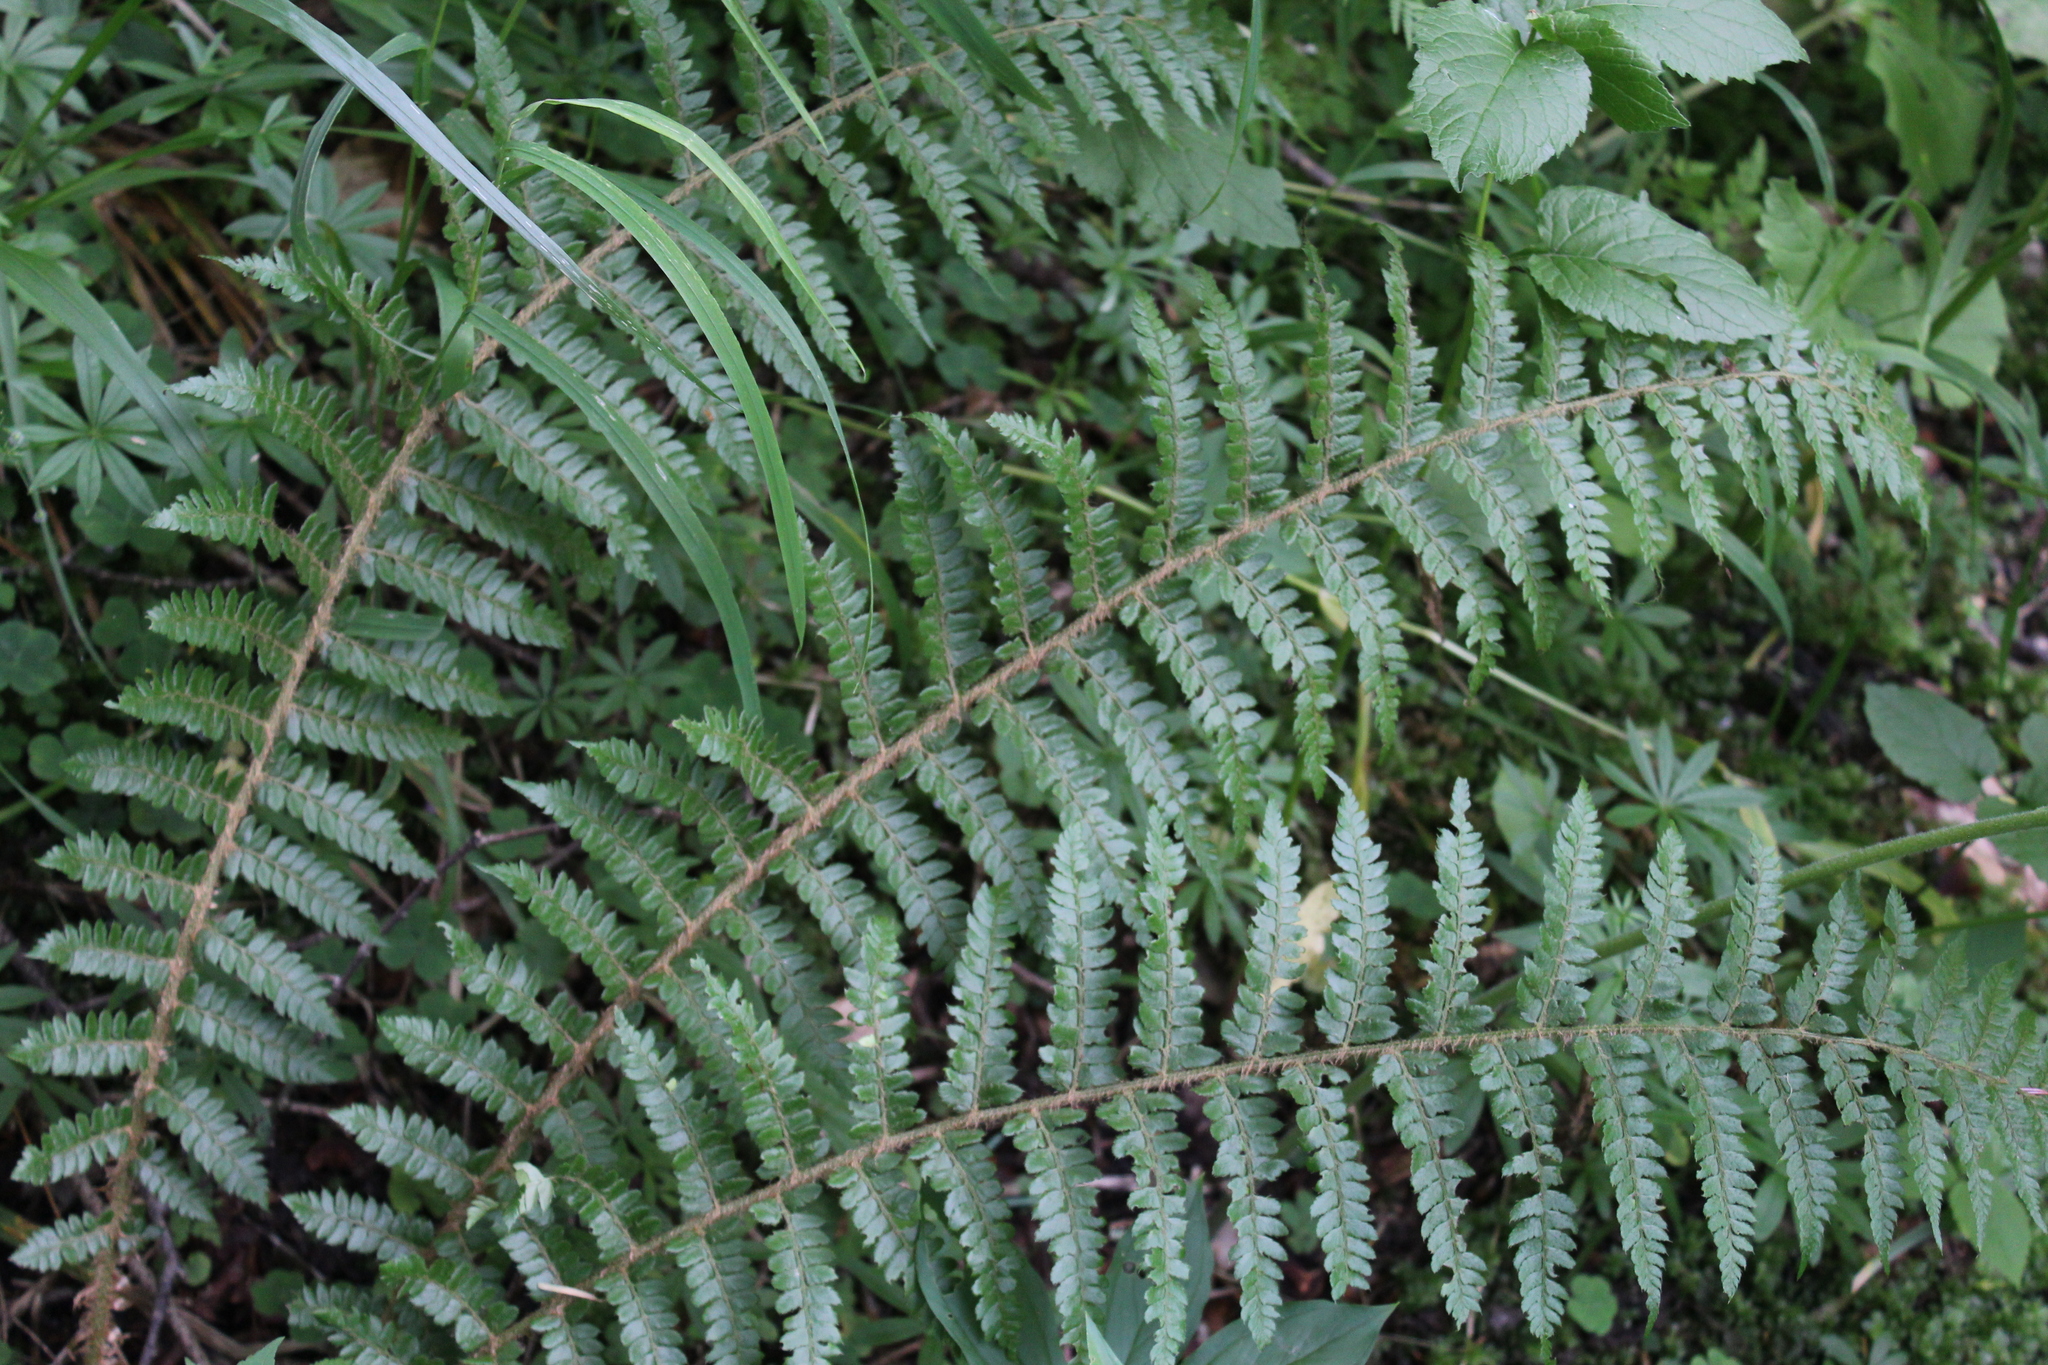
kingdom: Plantae
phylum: Tracheophyta
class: Polypodiopsida
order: Polypodiales
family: Dryopteridaceae
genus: Polystichum
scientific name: Polystichum braunii
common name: Braun's holly fern
